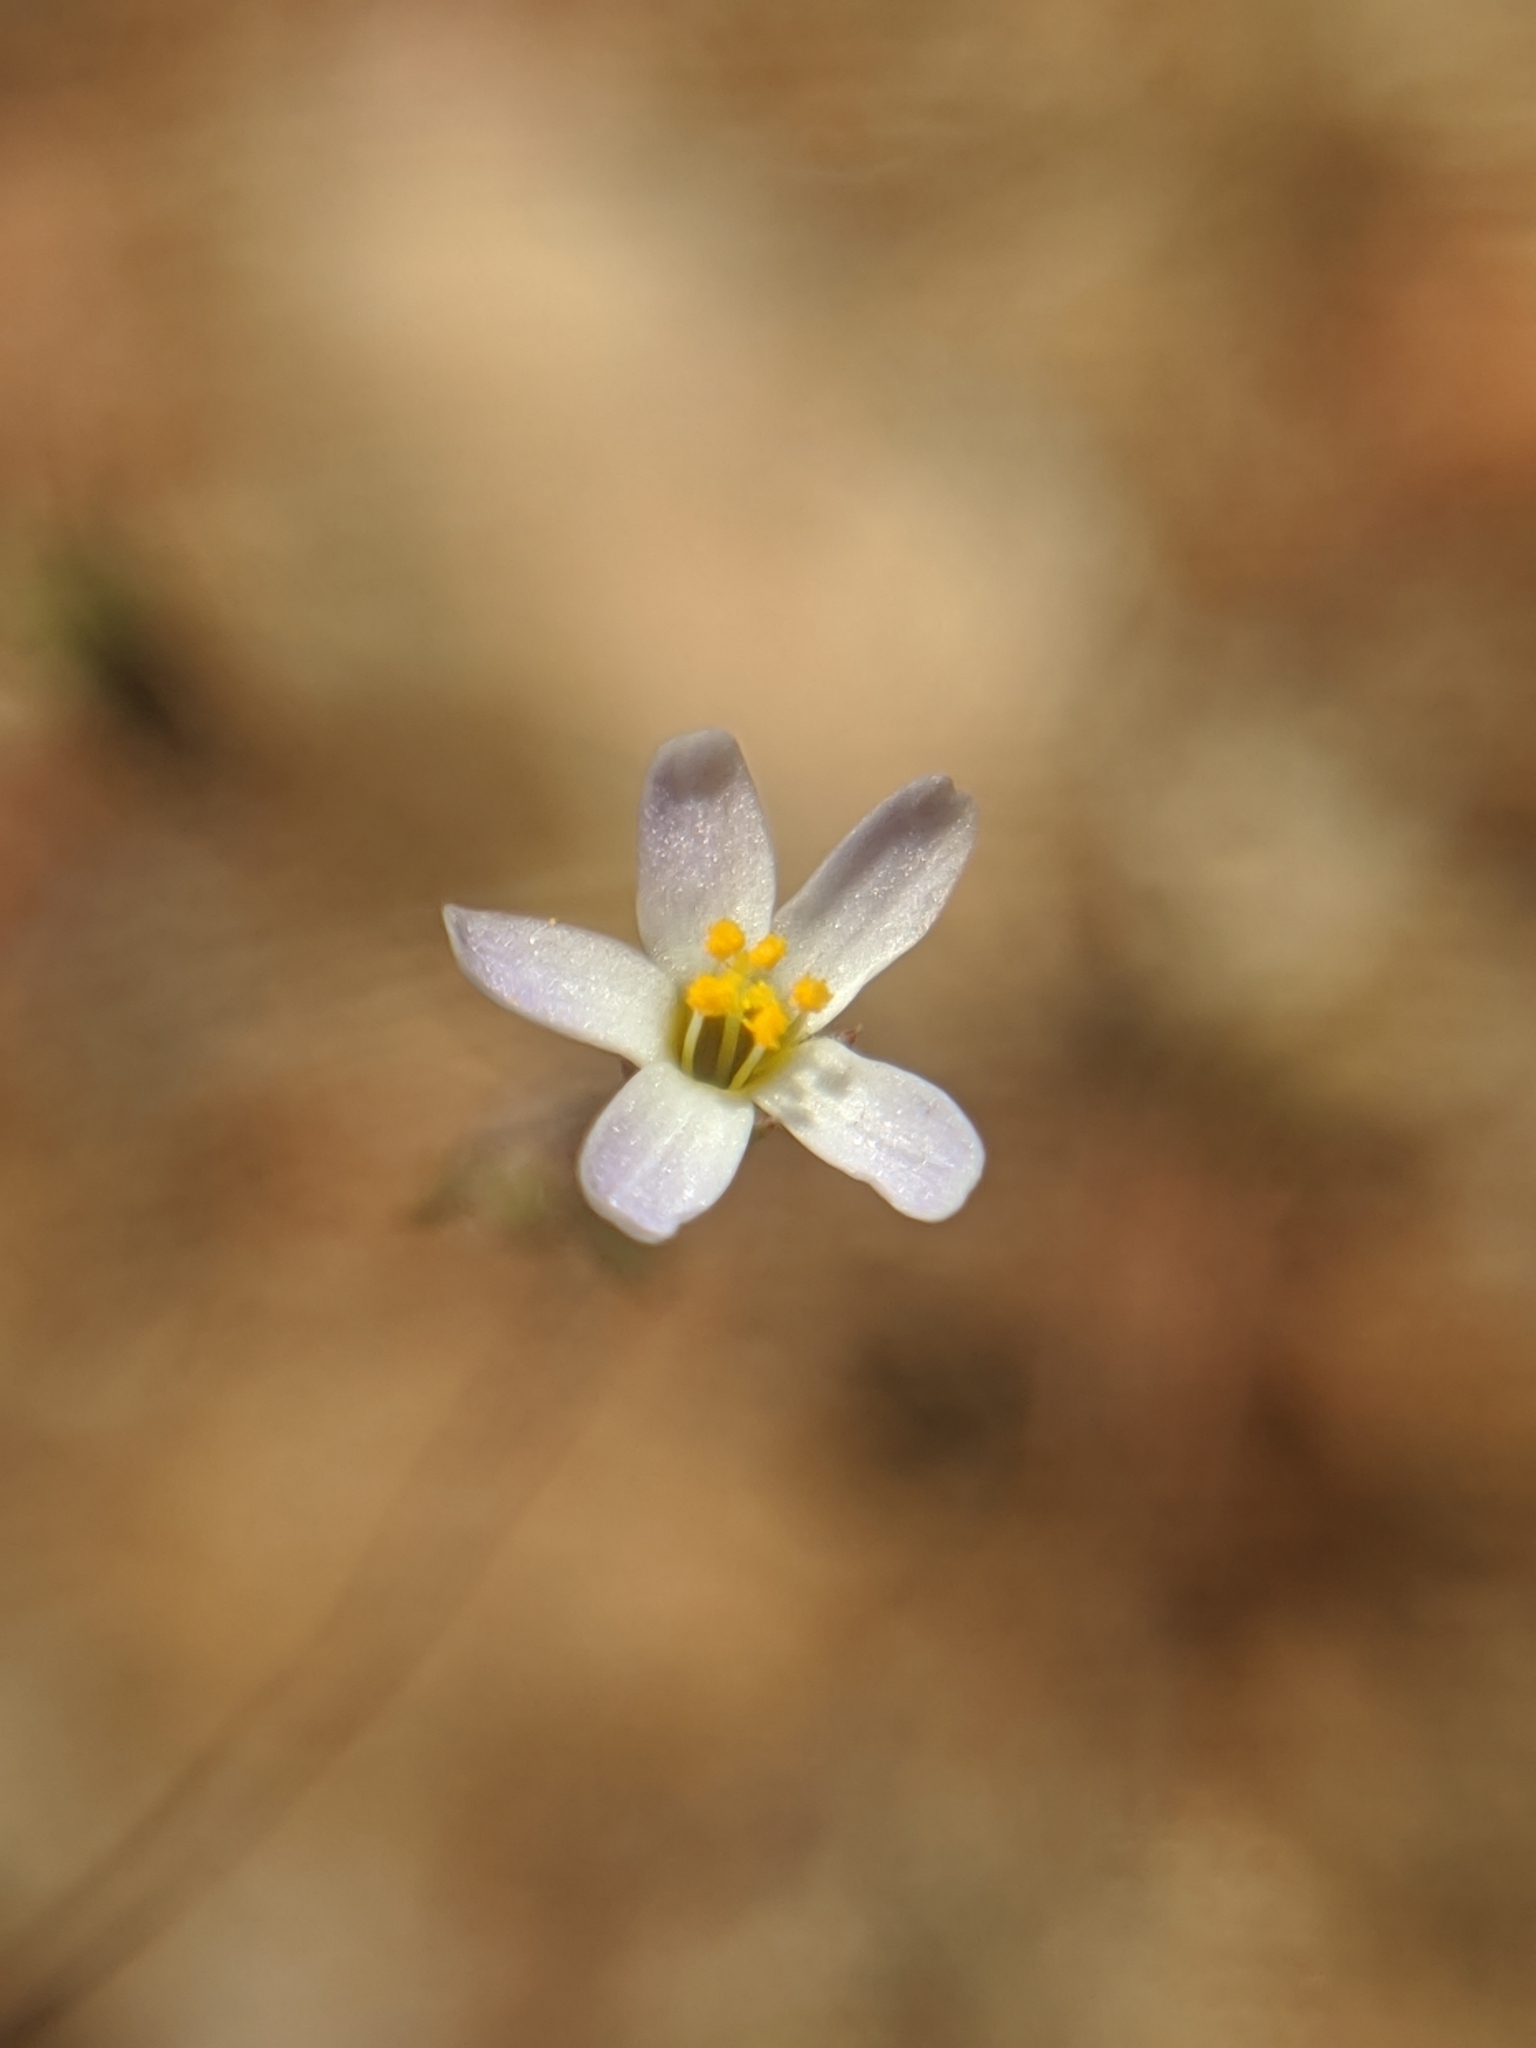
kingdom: Plantae
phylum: Tracheophyta
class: Magnoliopsida
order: Ericales
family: Polemoniaceae
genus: Leptosiphon
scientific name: Leptosiphon pygmaeus
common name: Pygmy linanthus
